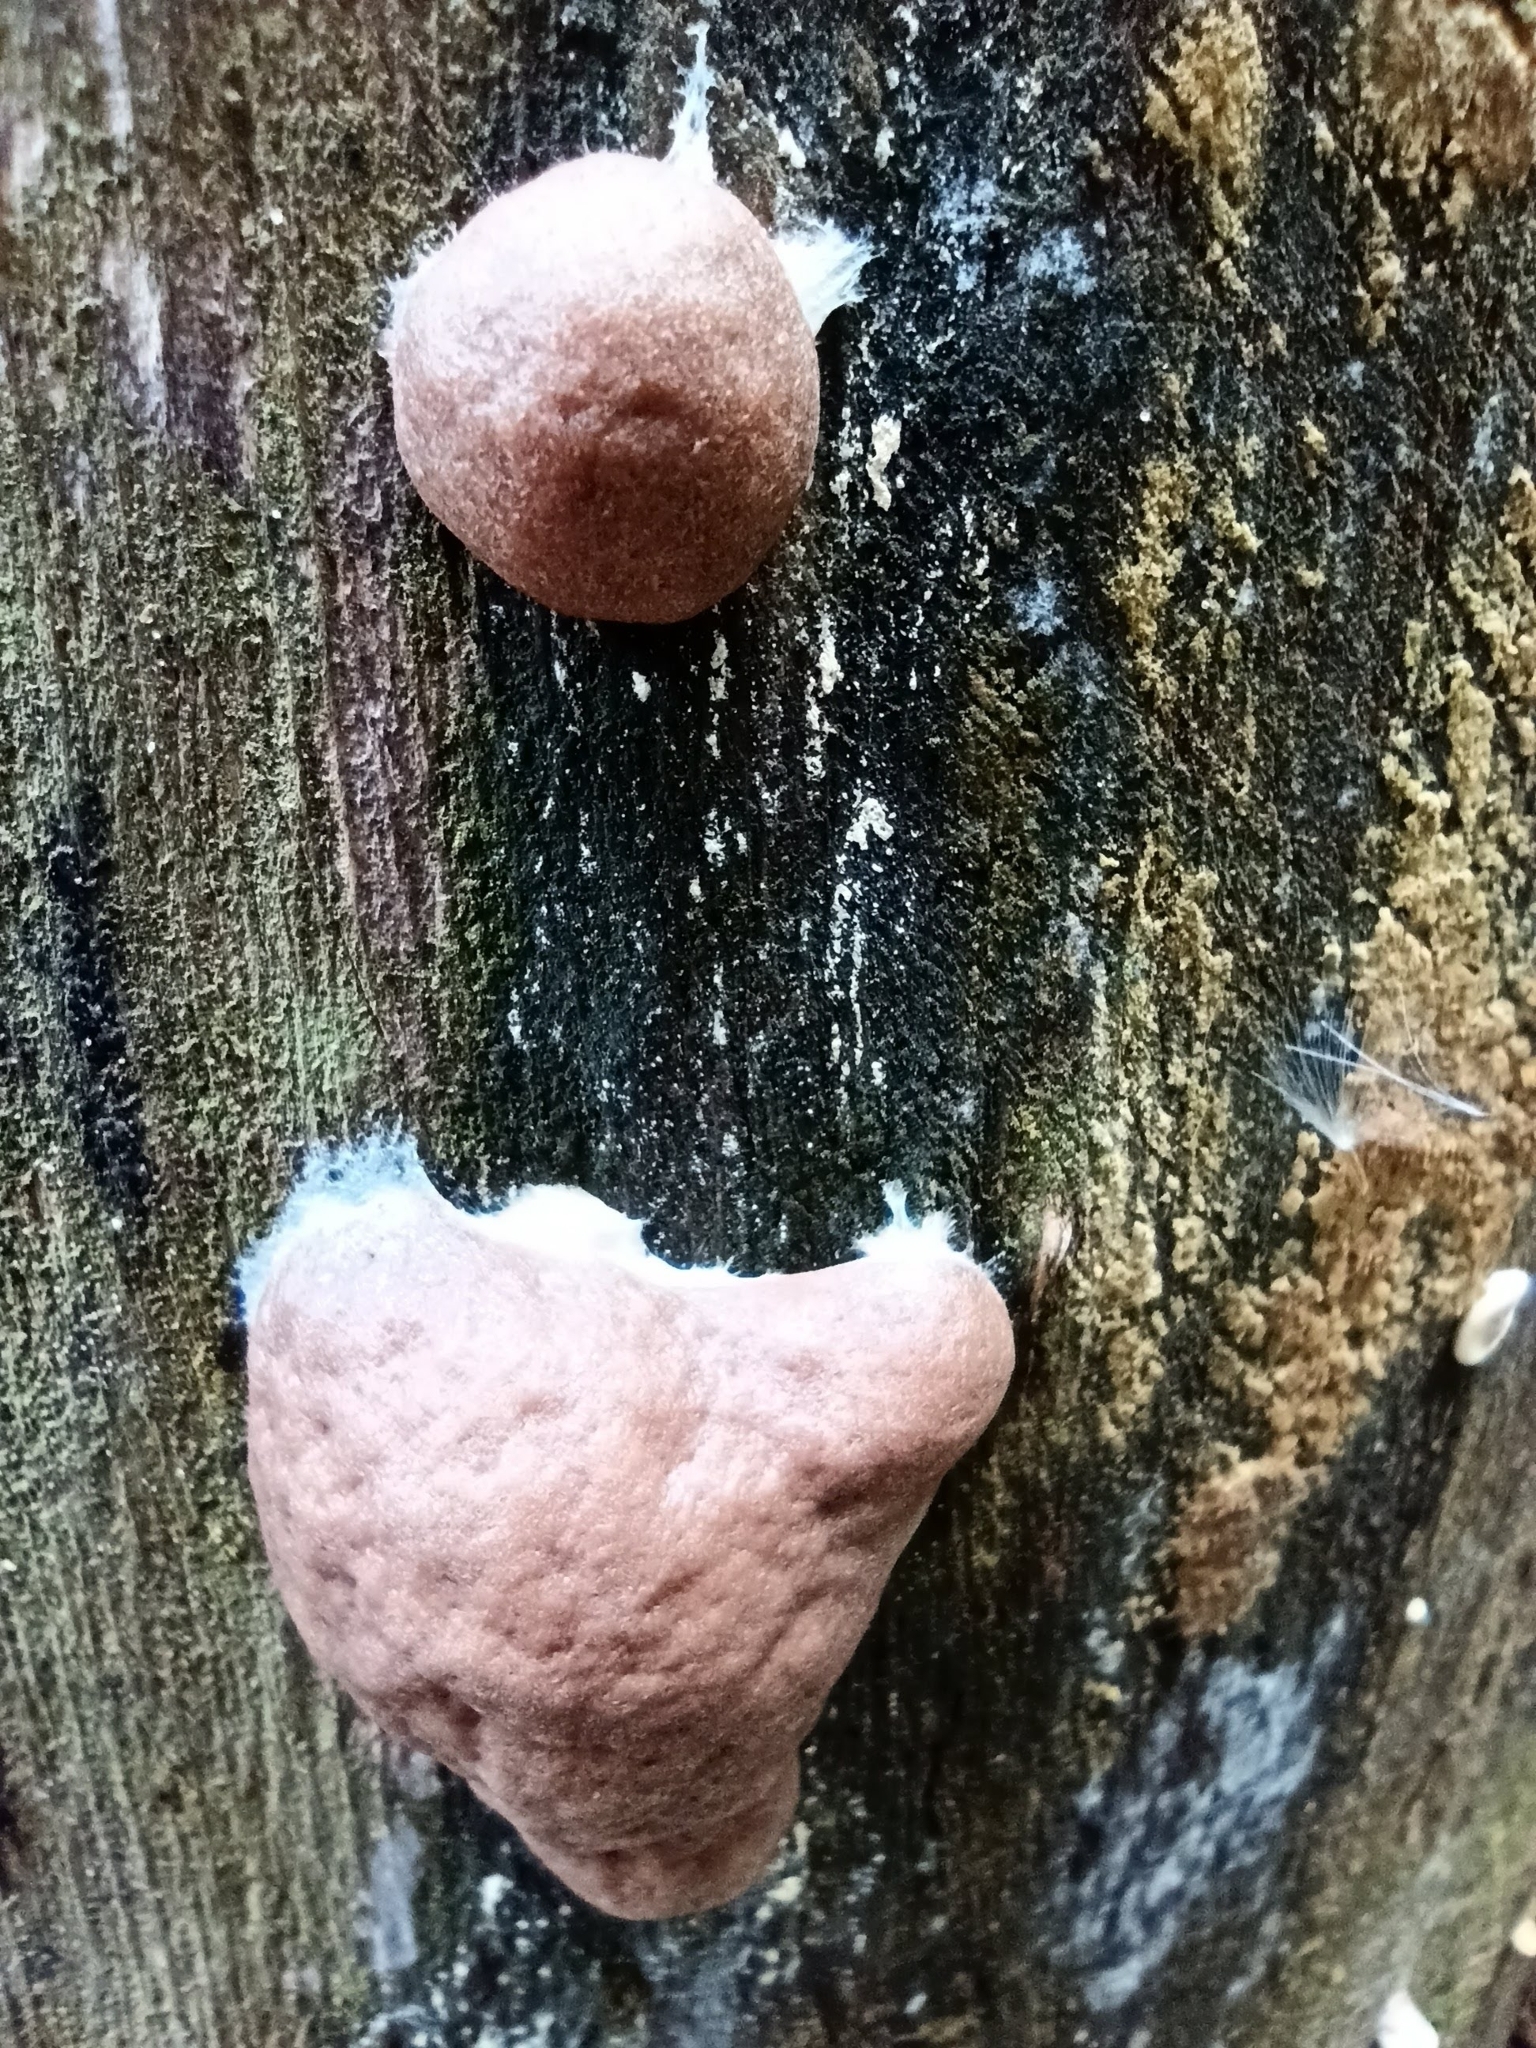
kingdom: Protozoa
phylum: Mycetozoa
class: Myxomycetes
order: Physarales
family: Physaraceae
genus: Fuligo
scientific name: Fuligo leviderma
